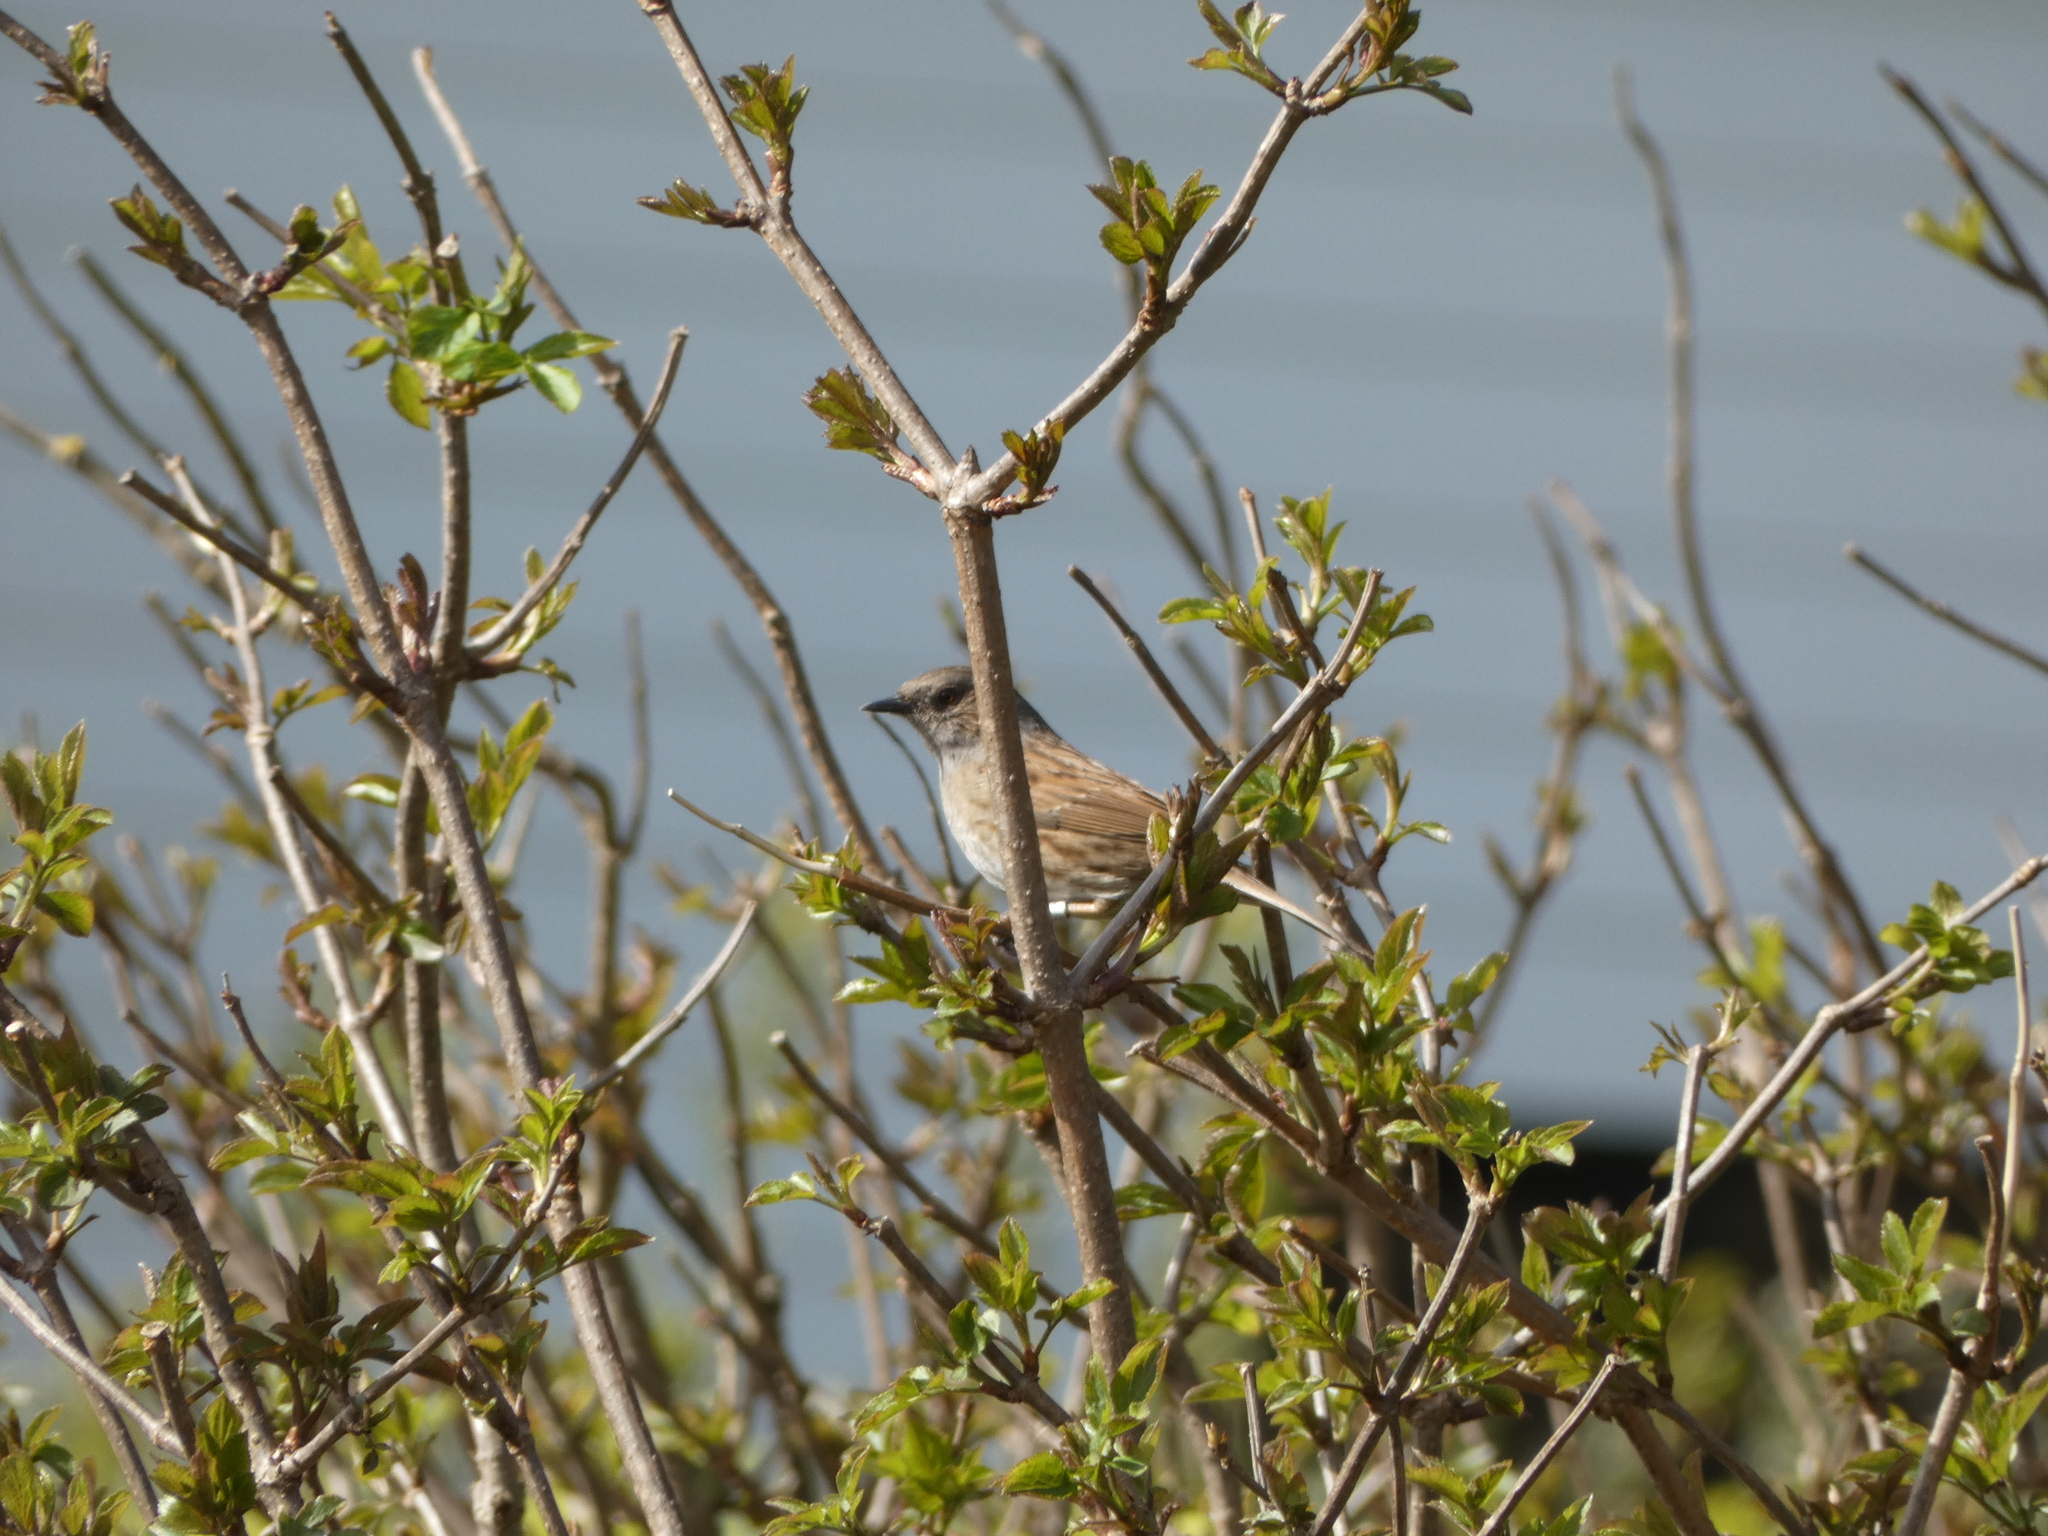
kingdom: Animalia
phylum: Chordata
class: Aves
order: Passeriformes
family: Prunellidae
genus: Prunella
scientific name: Prunella modularis
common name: Dunnock
